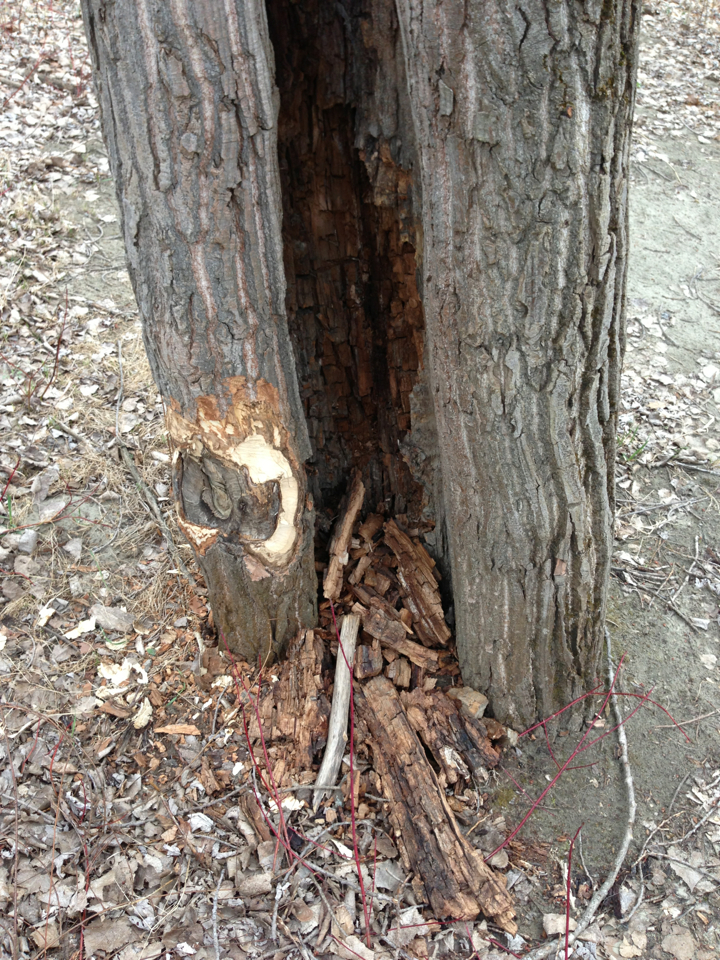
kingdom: Animalia
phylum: Chordata
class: Mammalia
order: Rodentia
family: Castoridae
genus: Castor
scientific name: Castor canadensis
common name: American beaver
